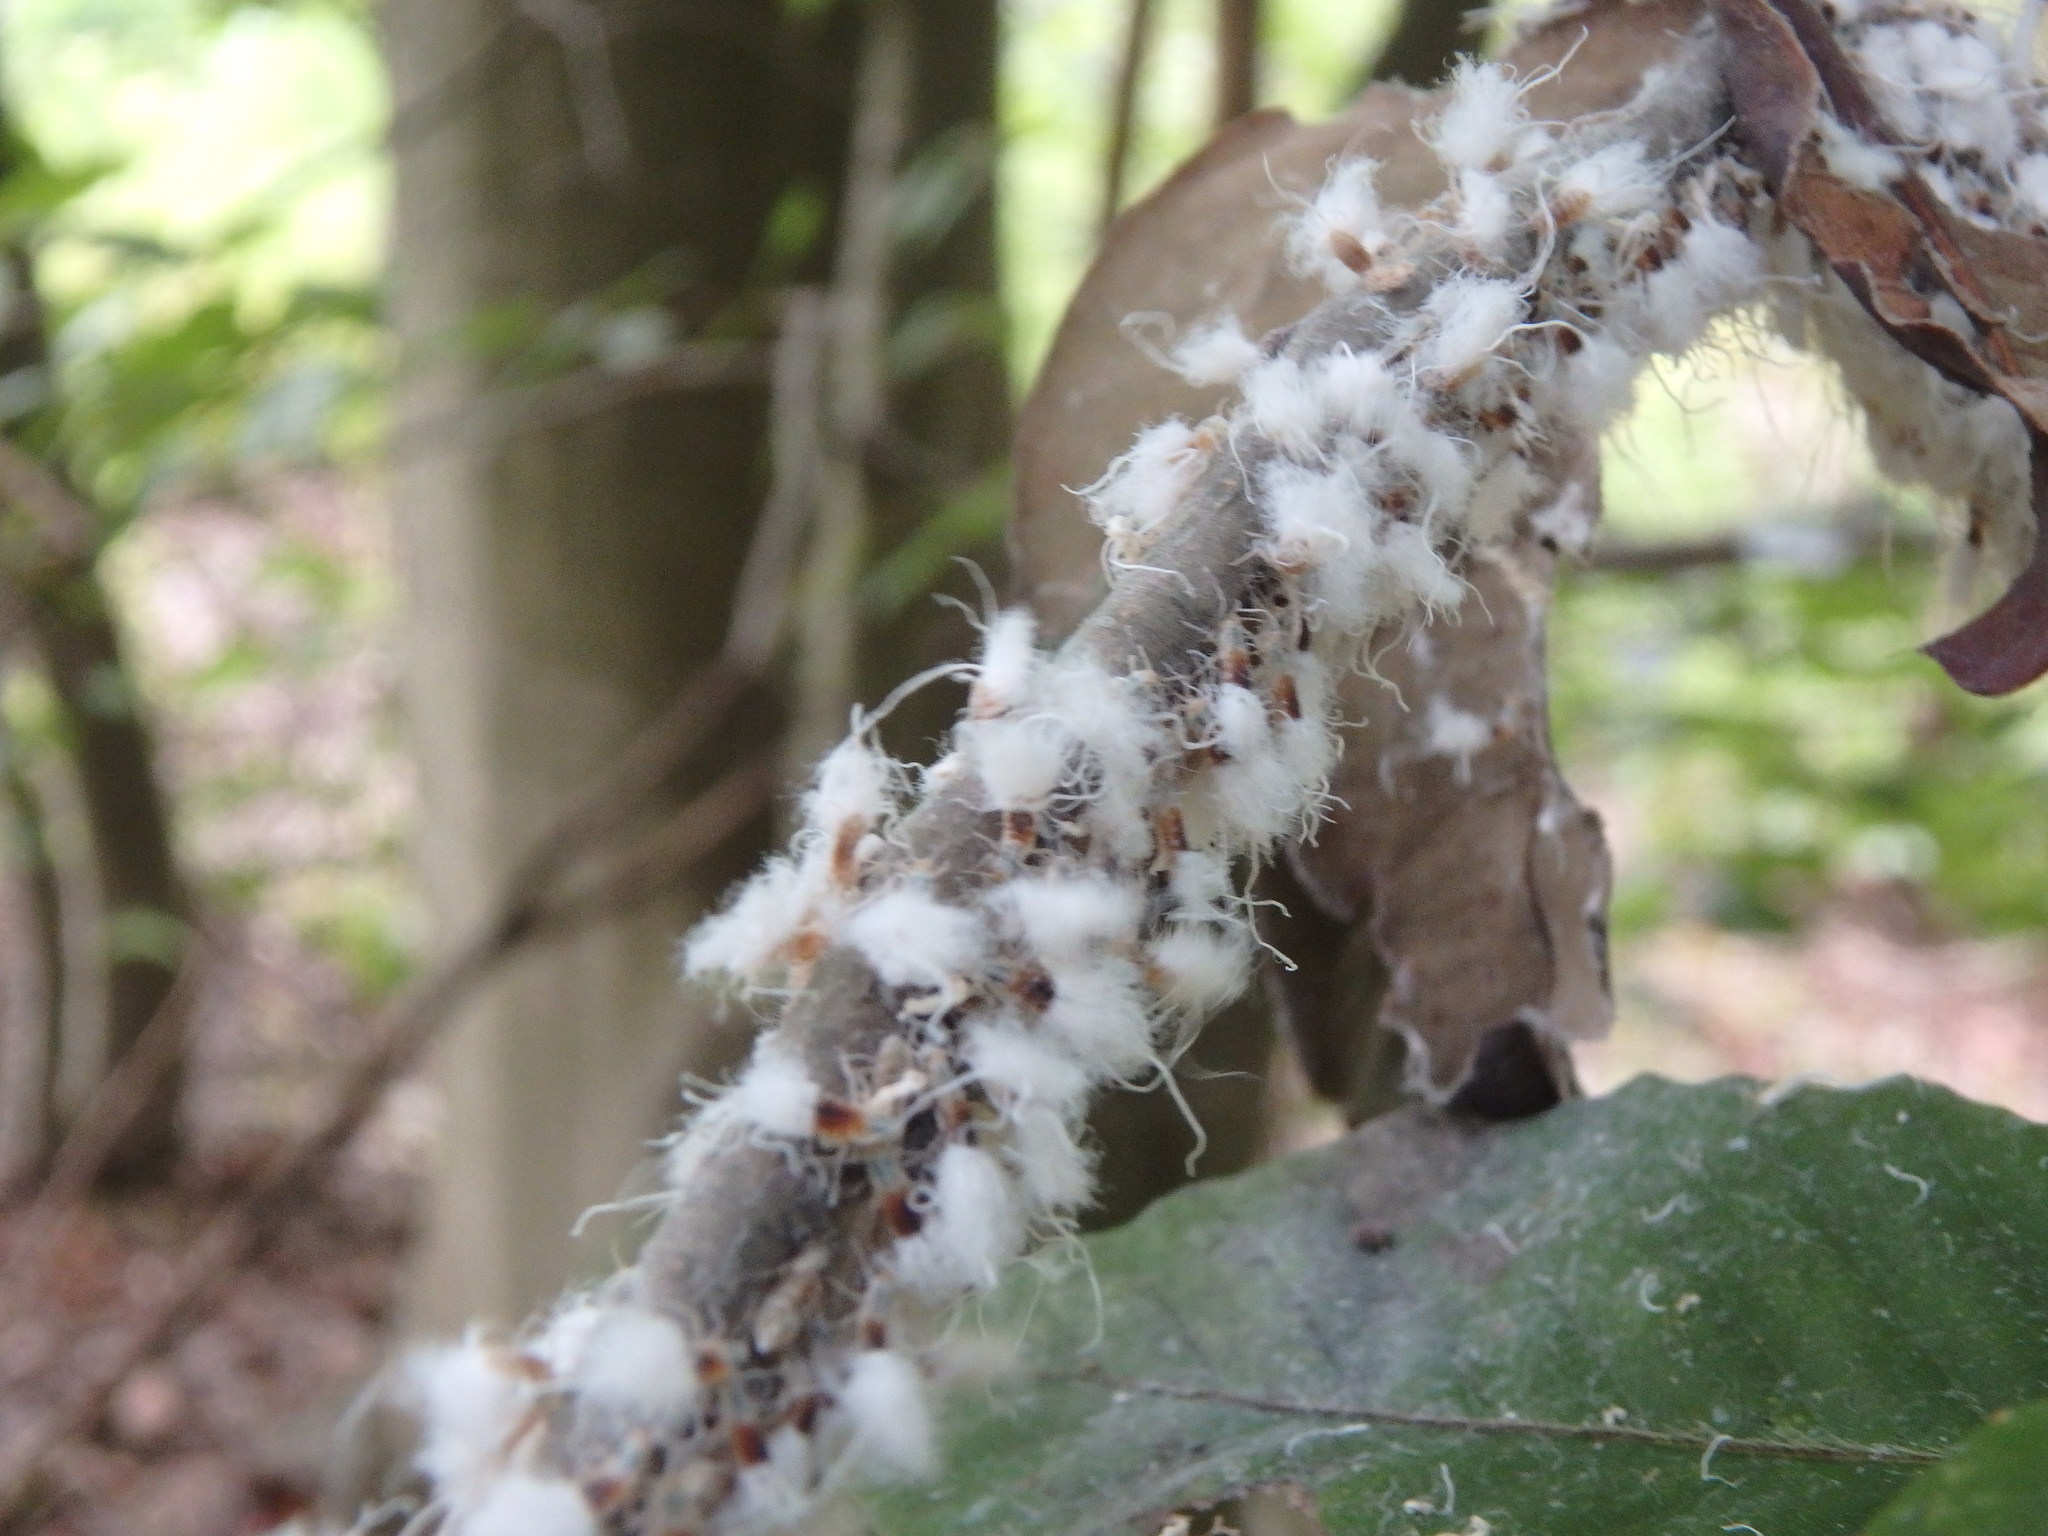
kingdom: Animalia
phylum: Arthropoda
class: Insecta
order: Hemiptera
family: Aphididae
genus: Grylloprociphilus
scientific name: Grylloprociphilus imbricator
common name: Beech blight aphid
